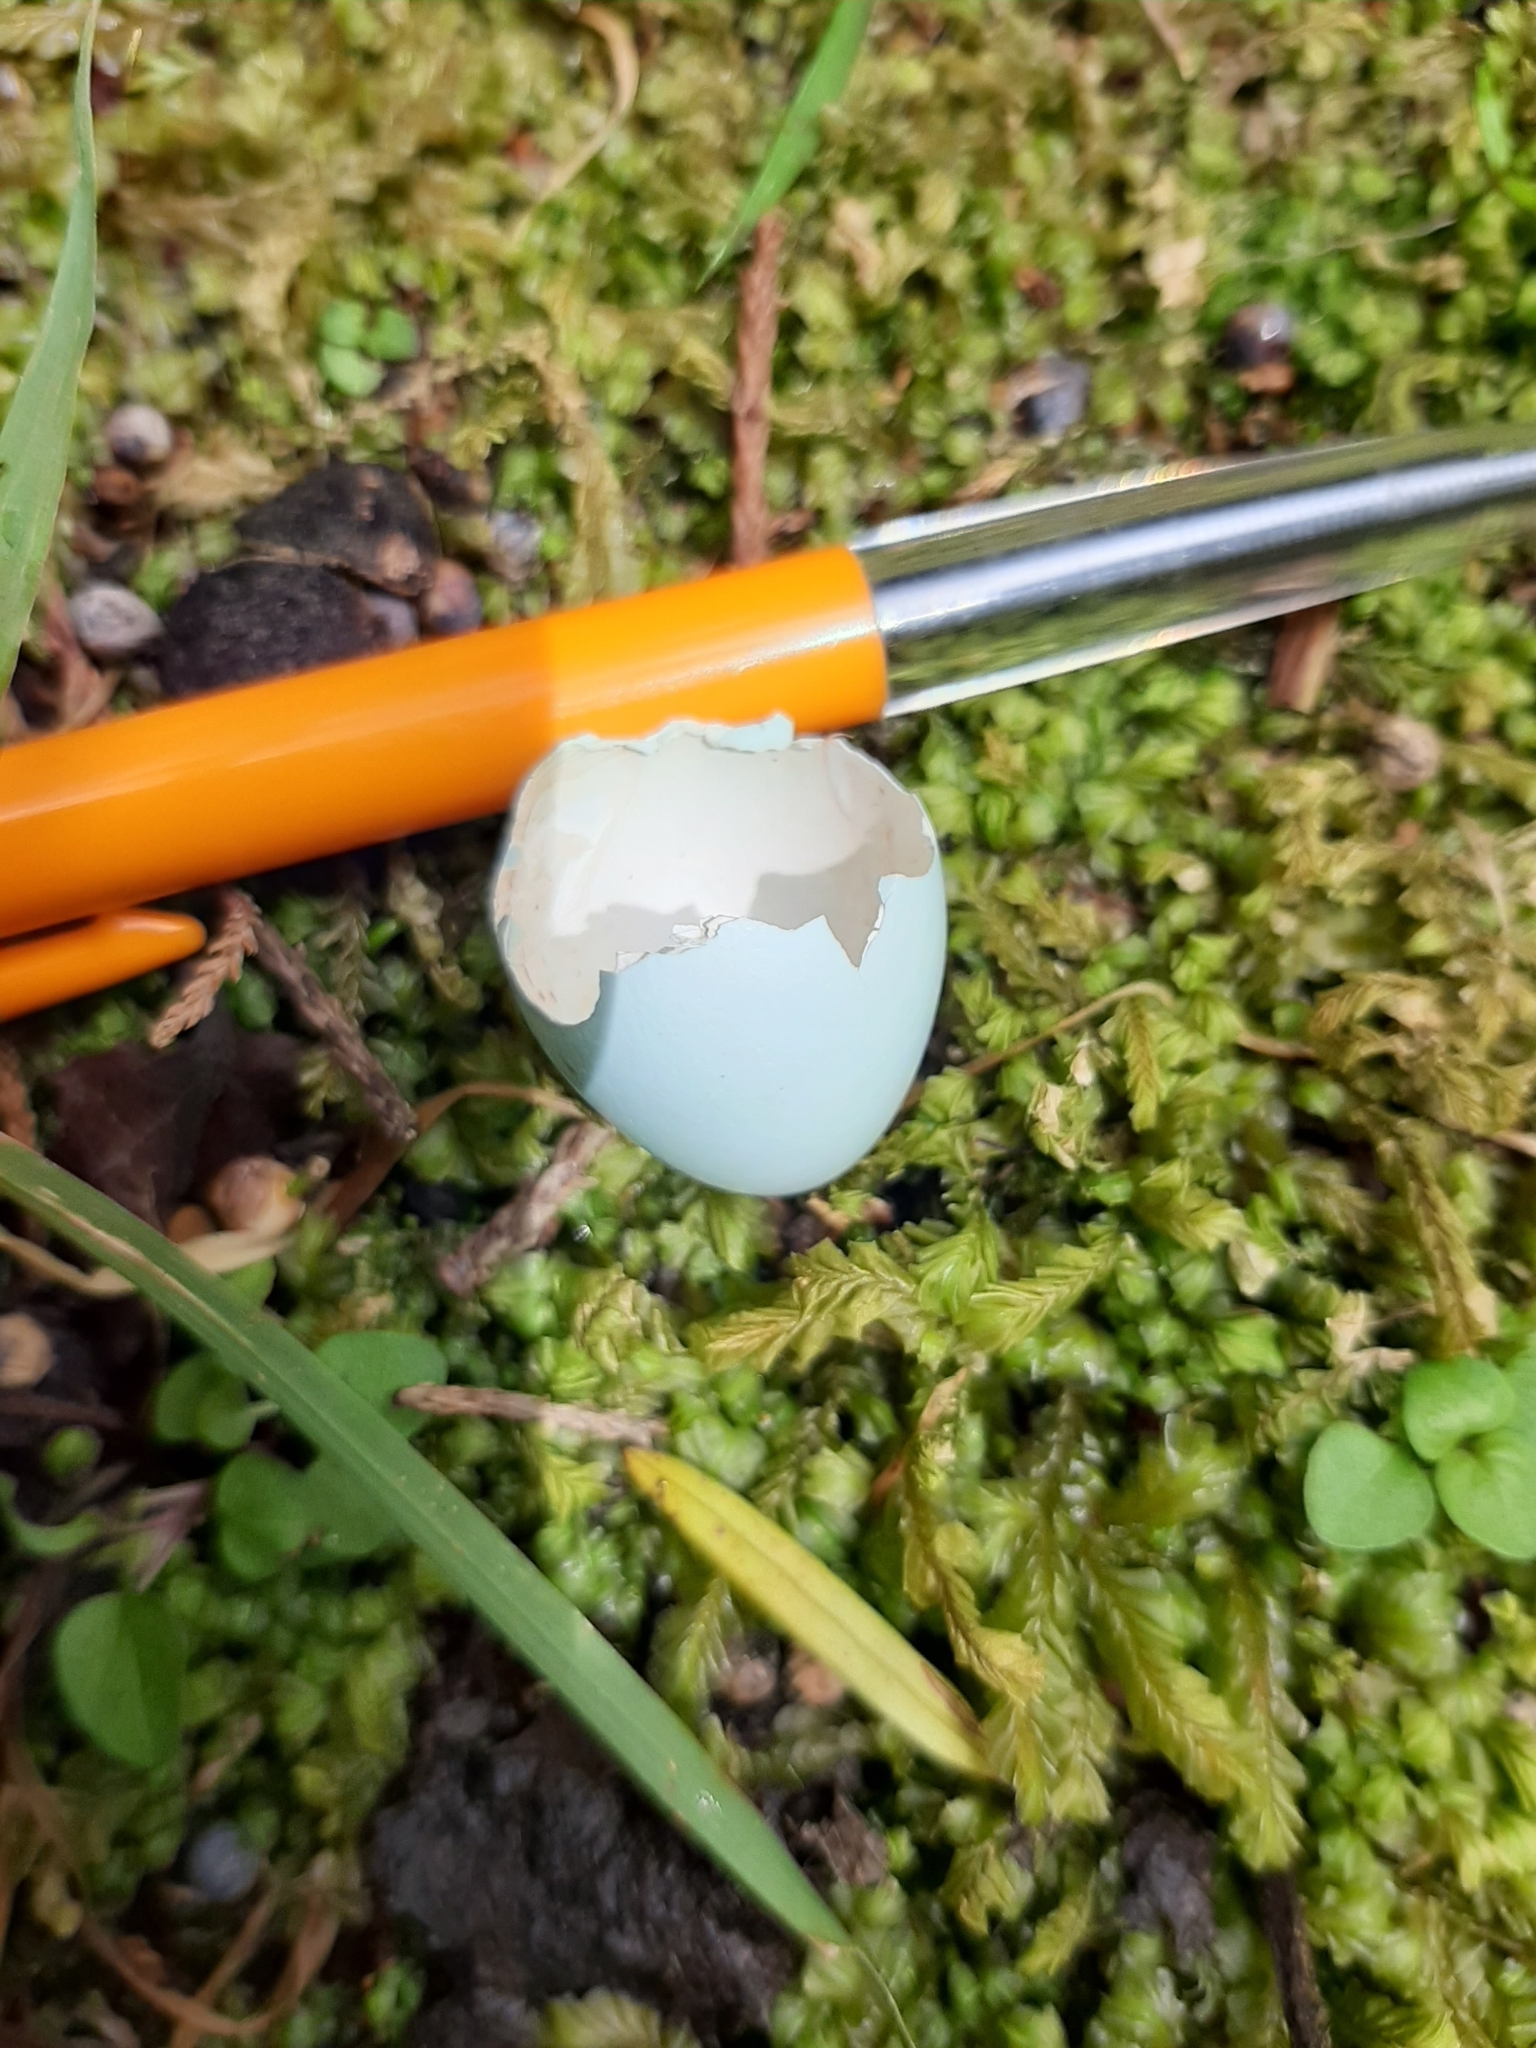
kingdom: Animalia
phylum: Chordata
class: Aves
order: Passeriformes
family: Sturnidae
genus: Sturnus
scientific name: Sturnus vulgaris
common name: Common starling
